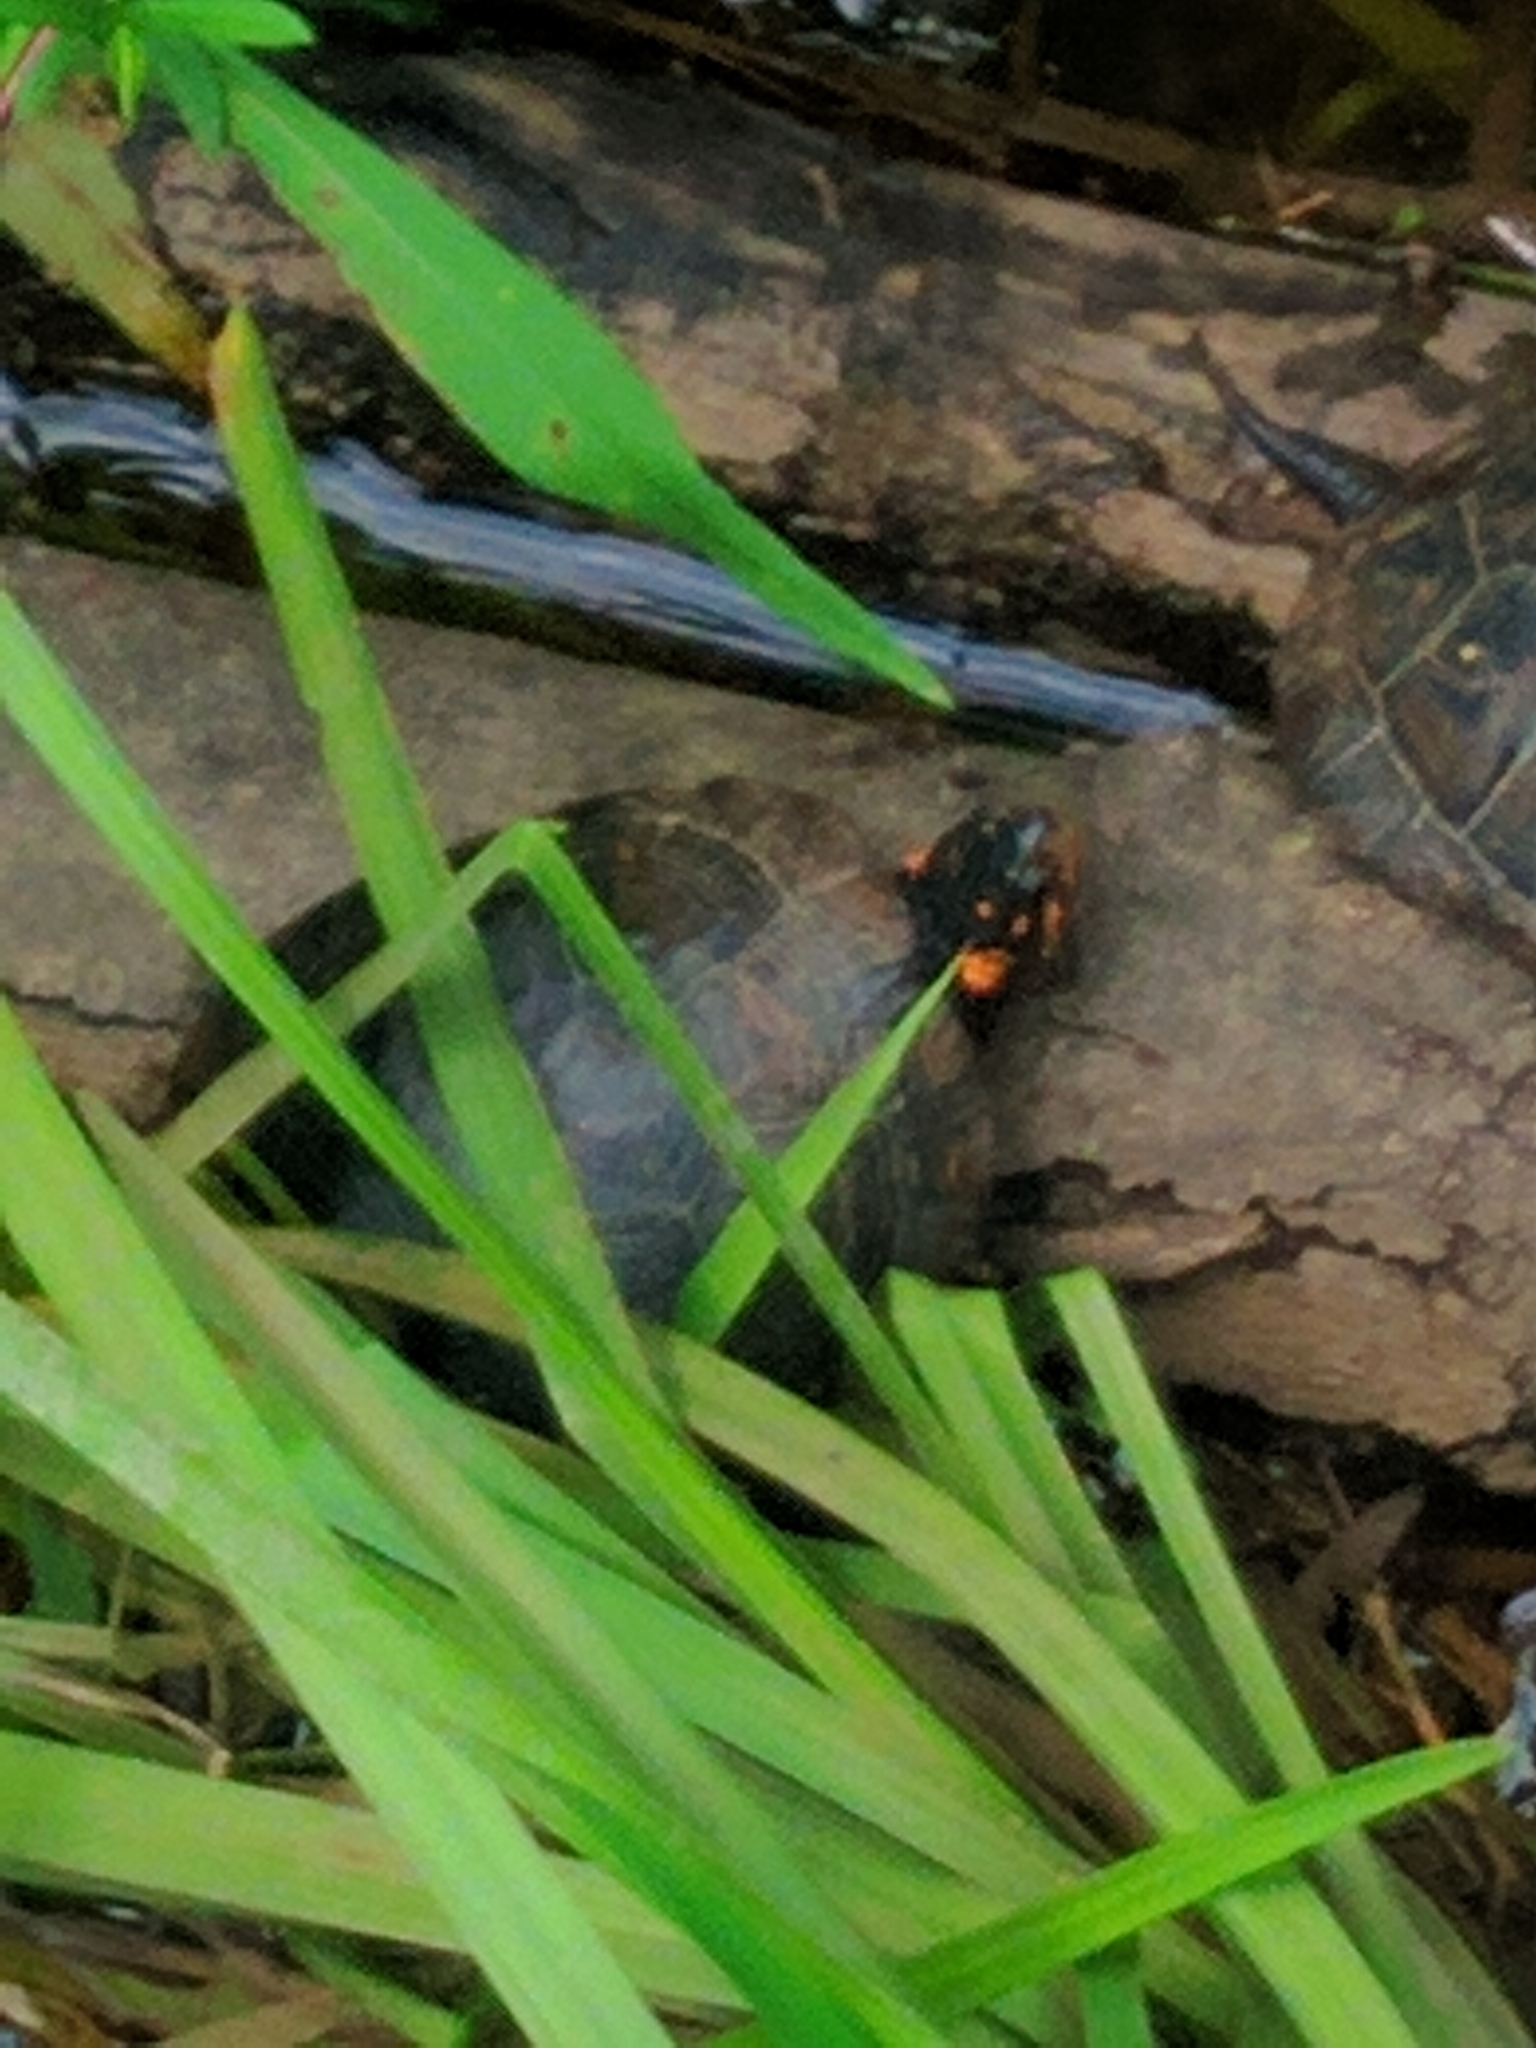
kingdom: Animalia
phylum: Chordata
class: Testudines
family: Emydidae
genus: Clemmys
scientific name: Clemmys guttata
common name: Spotted turtle
